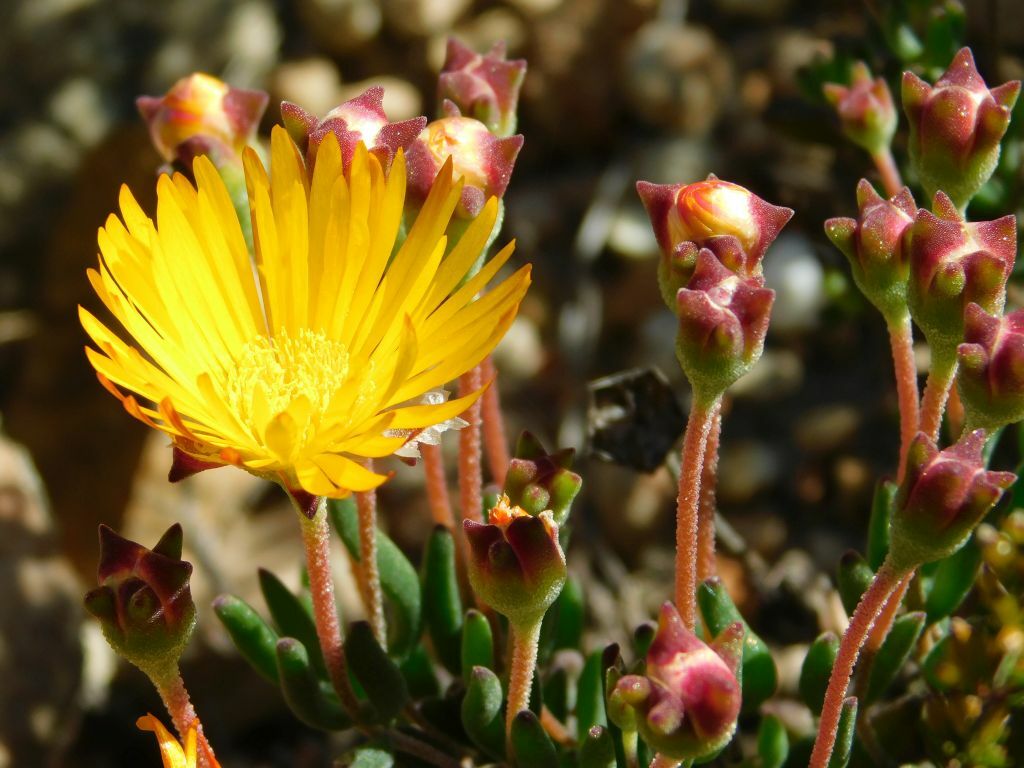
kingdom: Plantae
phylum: Tracheophyta
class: Magnoliopsida
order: Caryophyllales
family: Aizoaceae
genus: Drosanthemum
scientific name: Drosanthemum flavum
